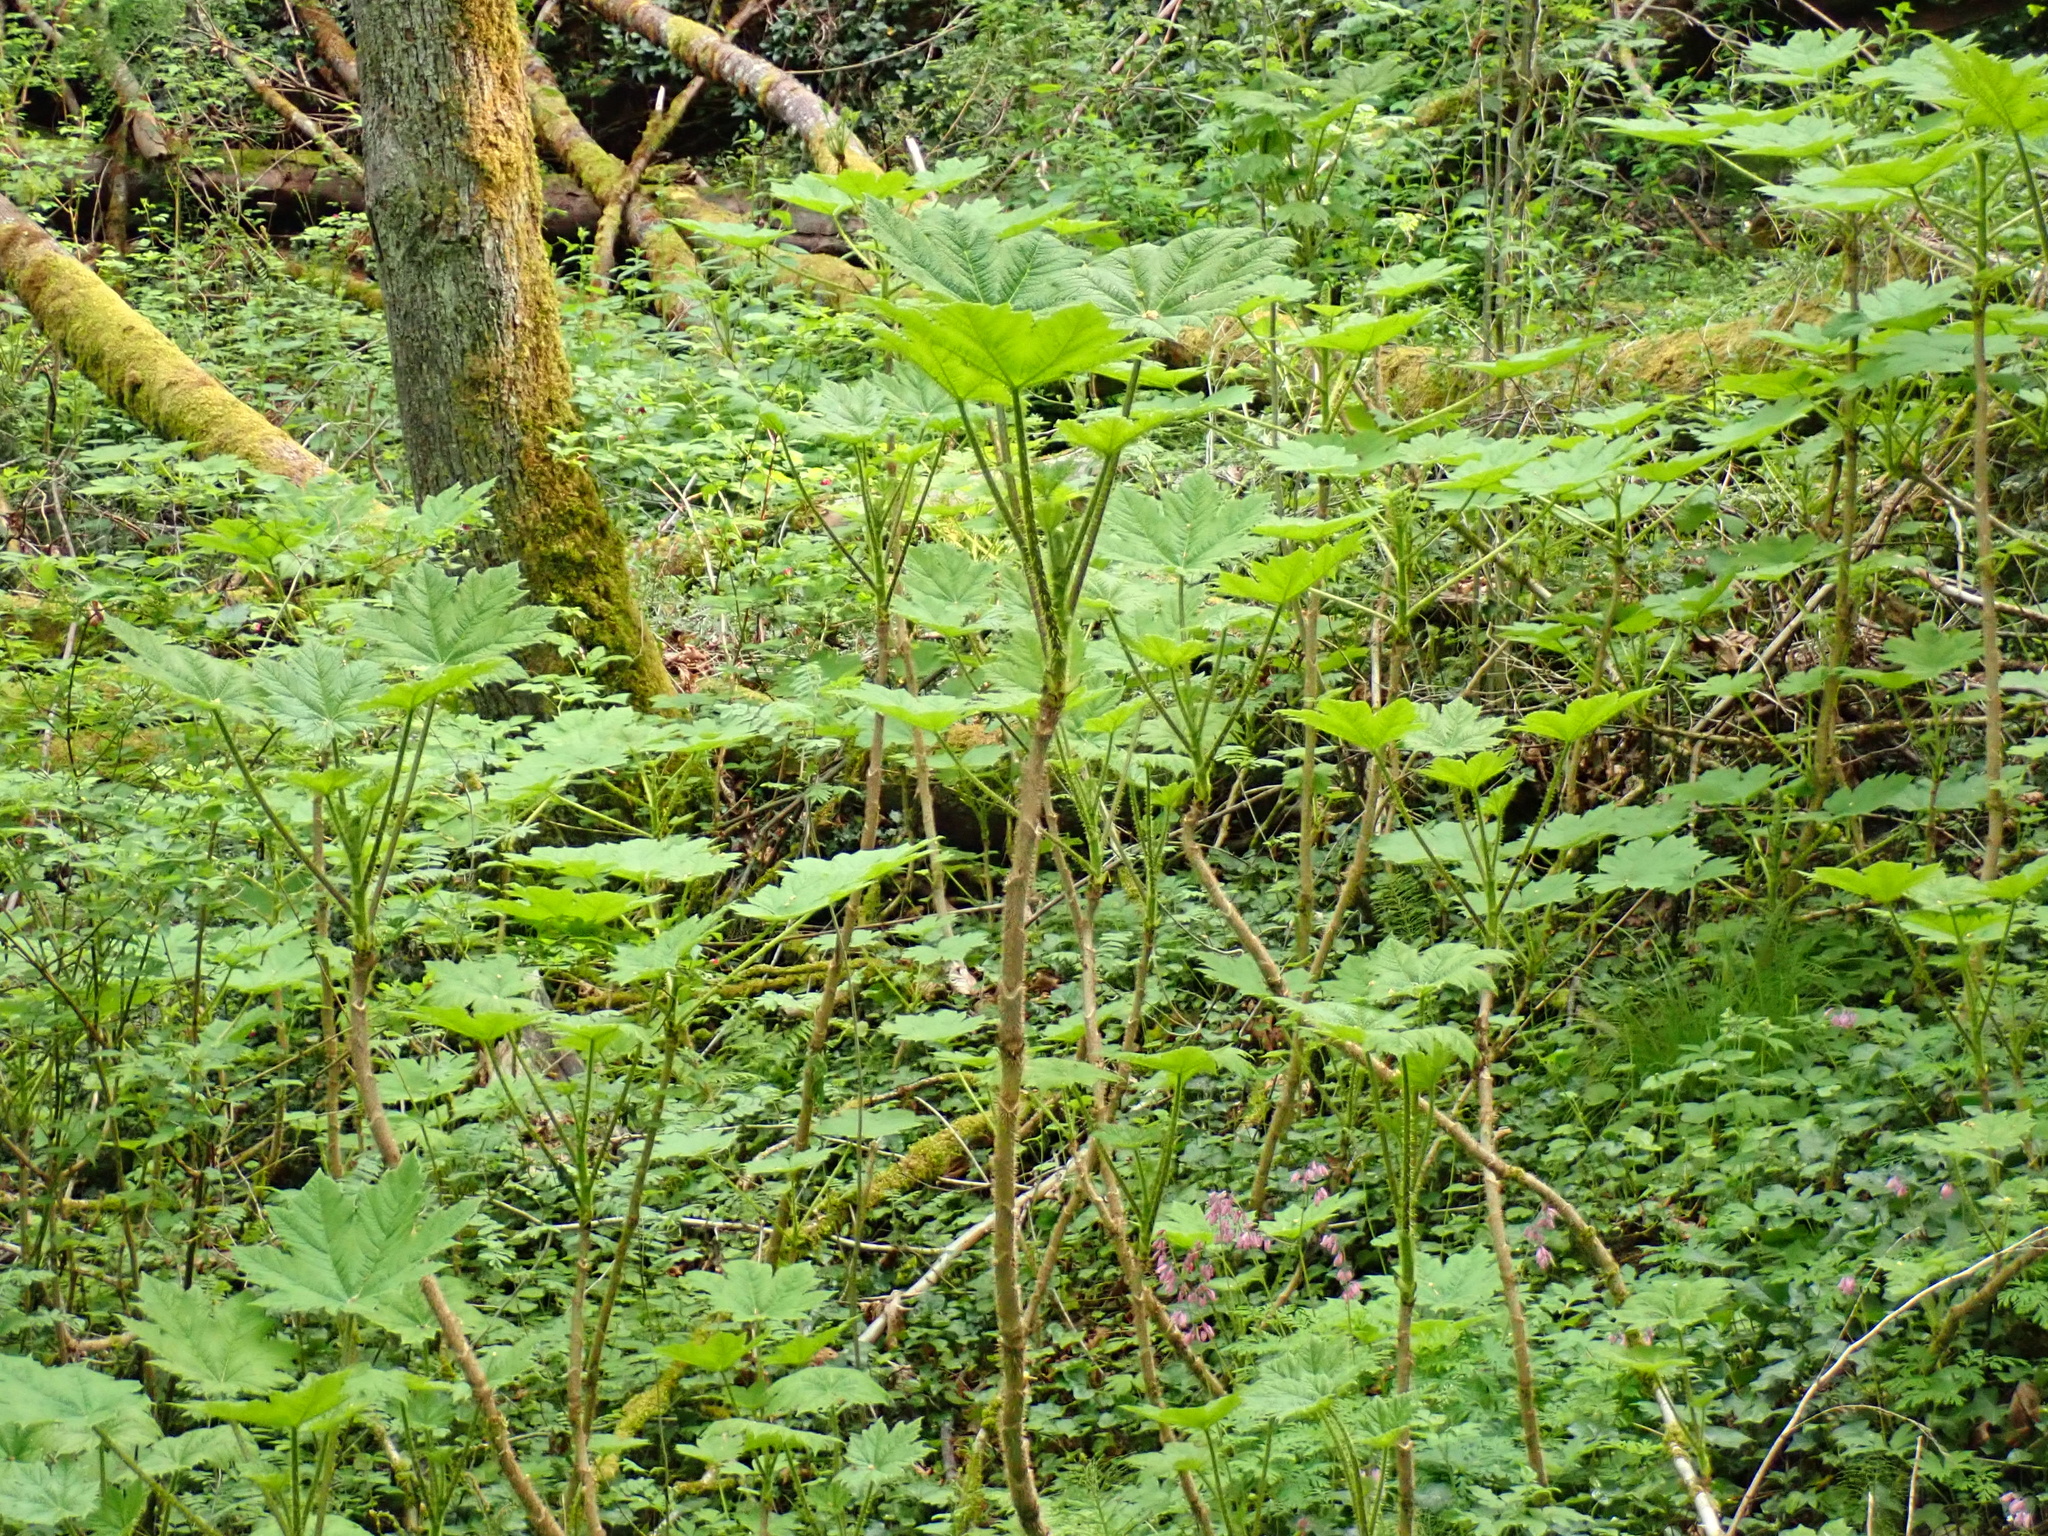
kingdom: Plantae
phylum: Tracheophyta
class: Magnoliopsida
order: Apiales
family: Araliaceae
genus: Oplopanax
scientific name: Oplopanax horridus
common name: Devil's walking-stick
